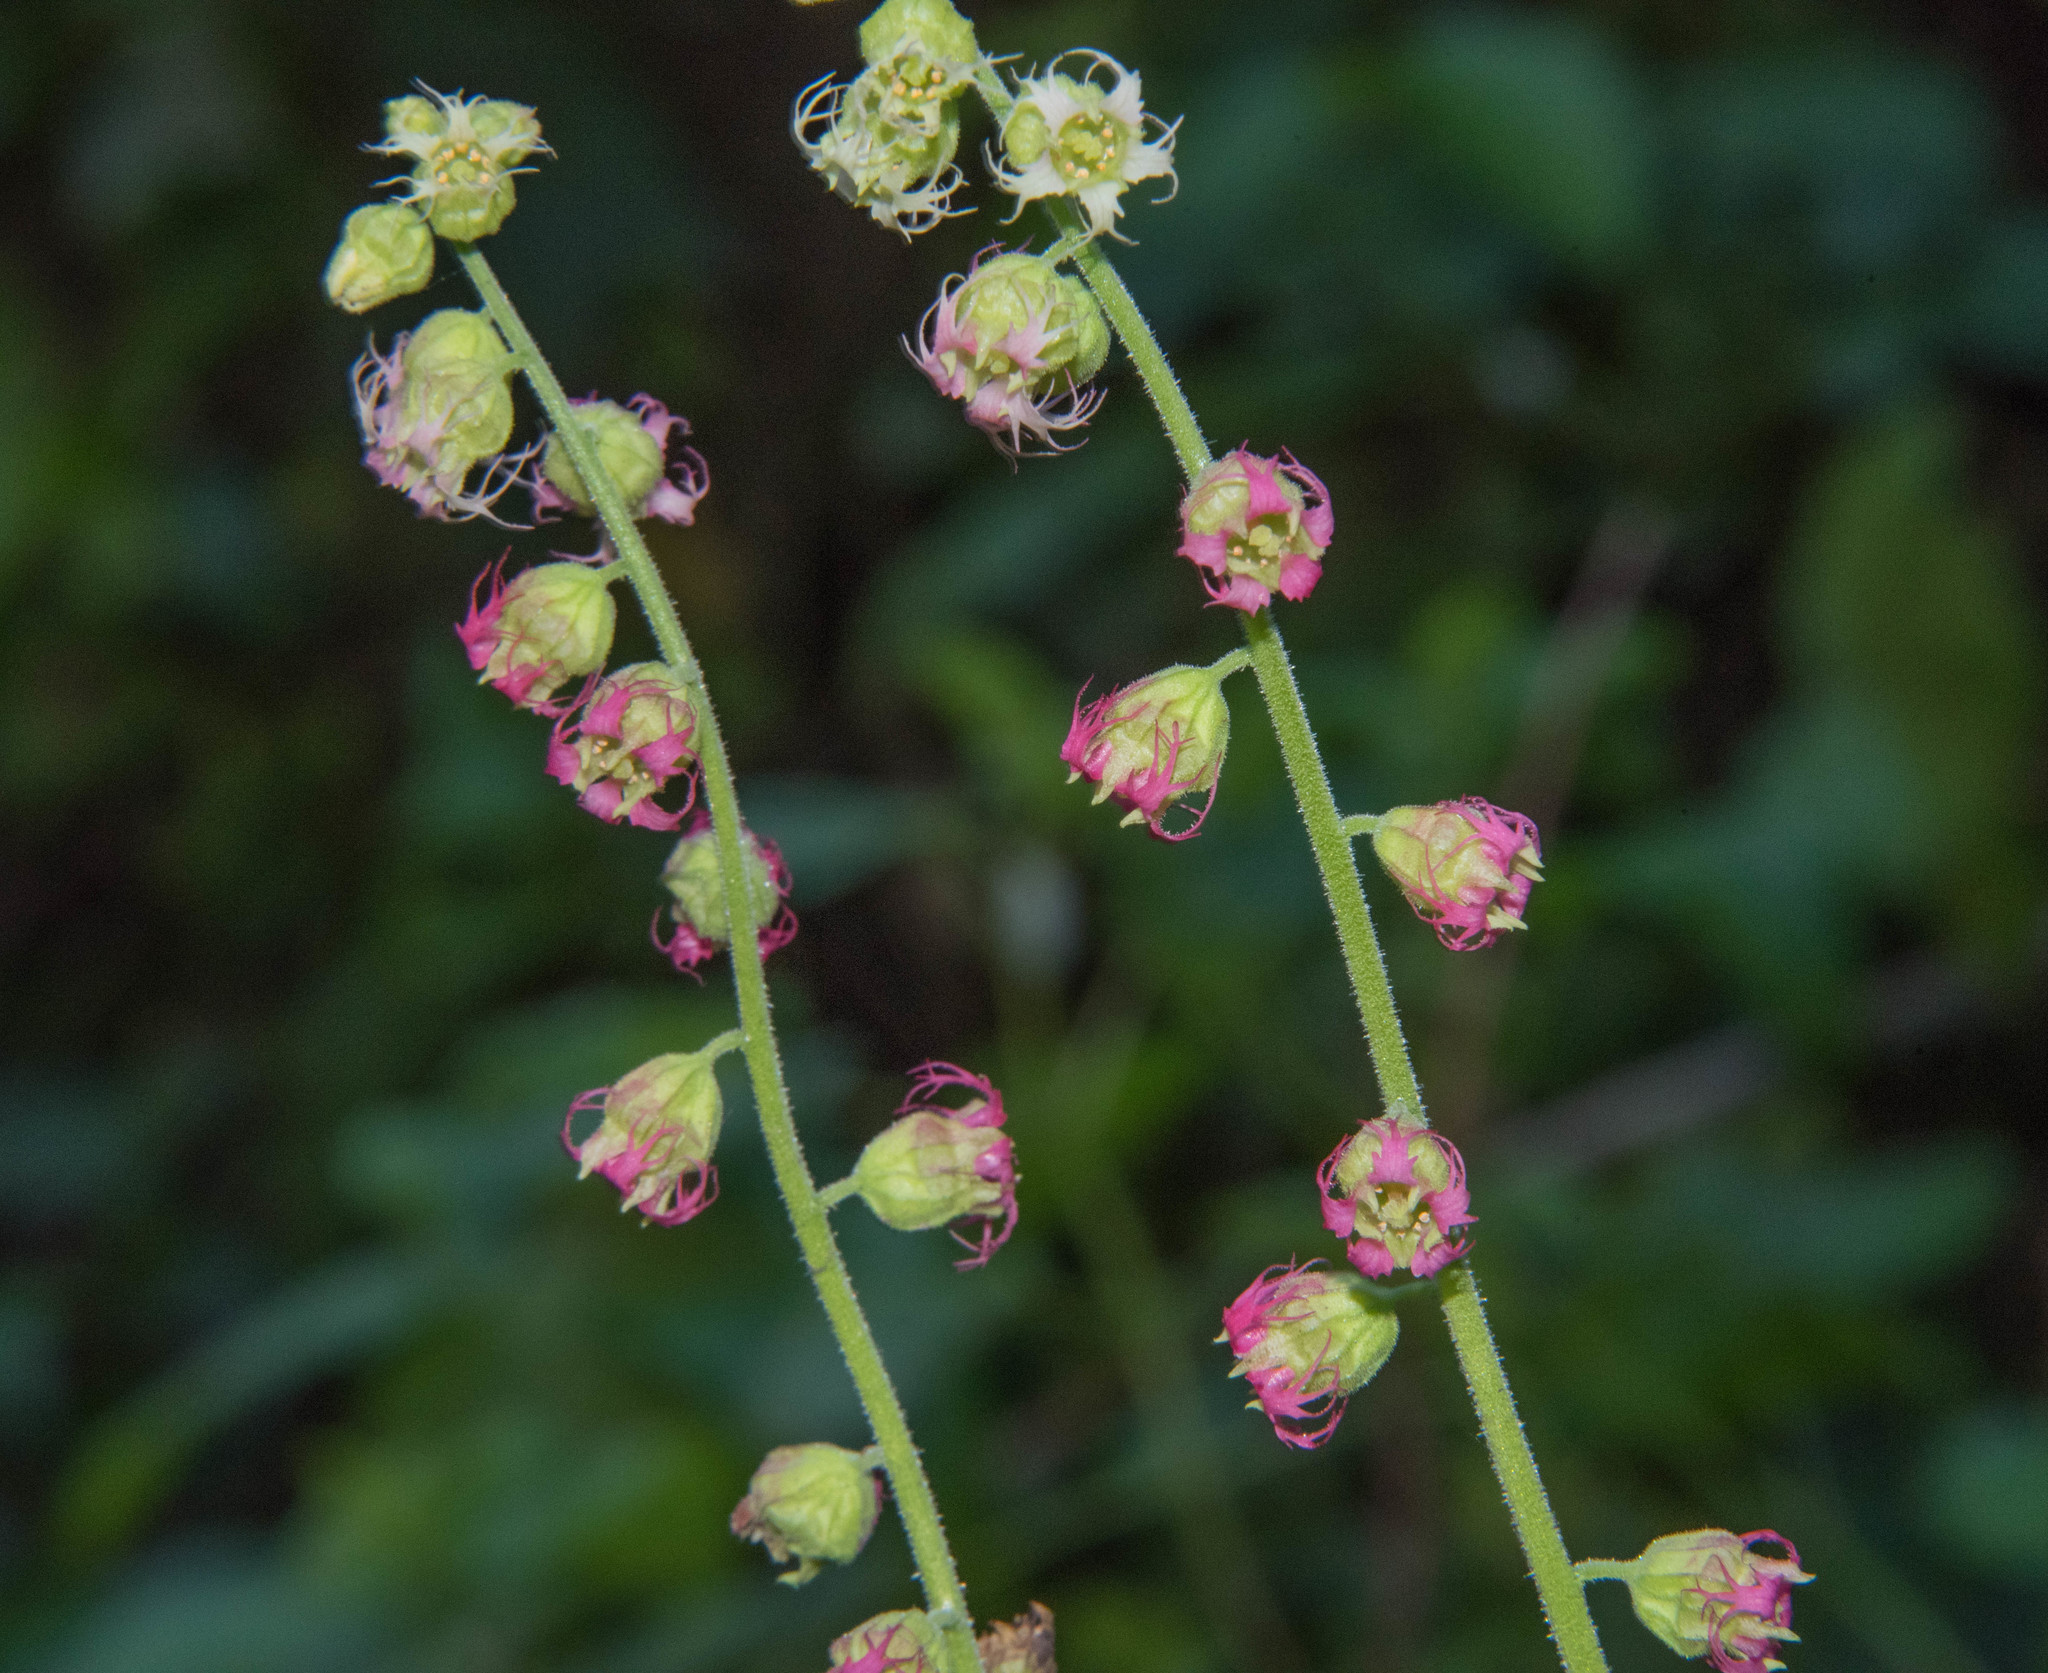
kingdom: Plantae
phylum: Tracheophyta
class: Magnoliopsida
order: Saxifragales
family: Saxifragaceae
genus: Tellima
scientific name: Tellima grandiflora
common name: Fringecups
